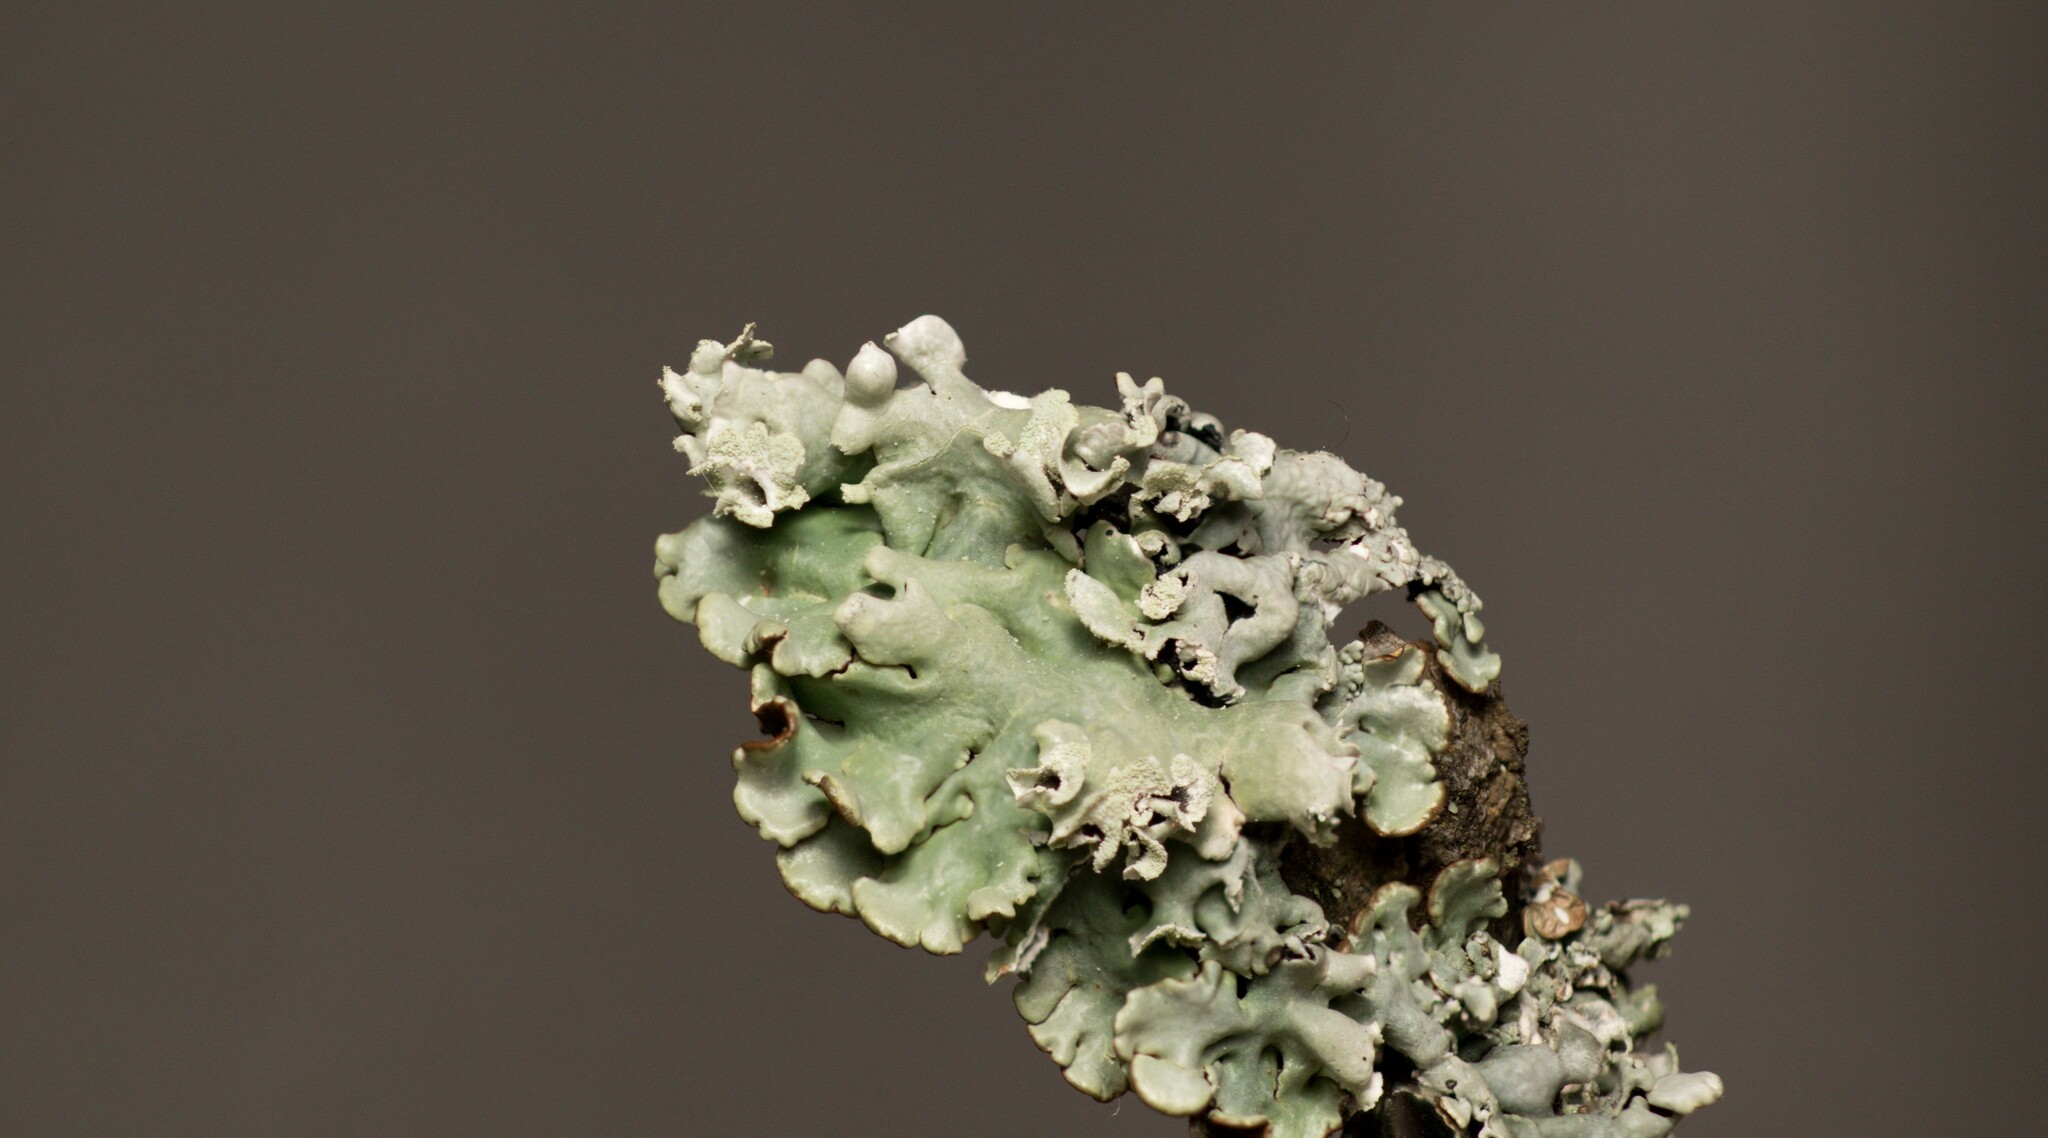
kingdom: Fungi
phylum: Ascomycota
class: Lecanoromycetes
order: Lecanorales
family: Parmeliaceae
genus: Hypogymnia
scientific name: Hypogymnia physodes
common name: Dark crottle
